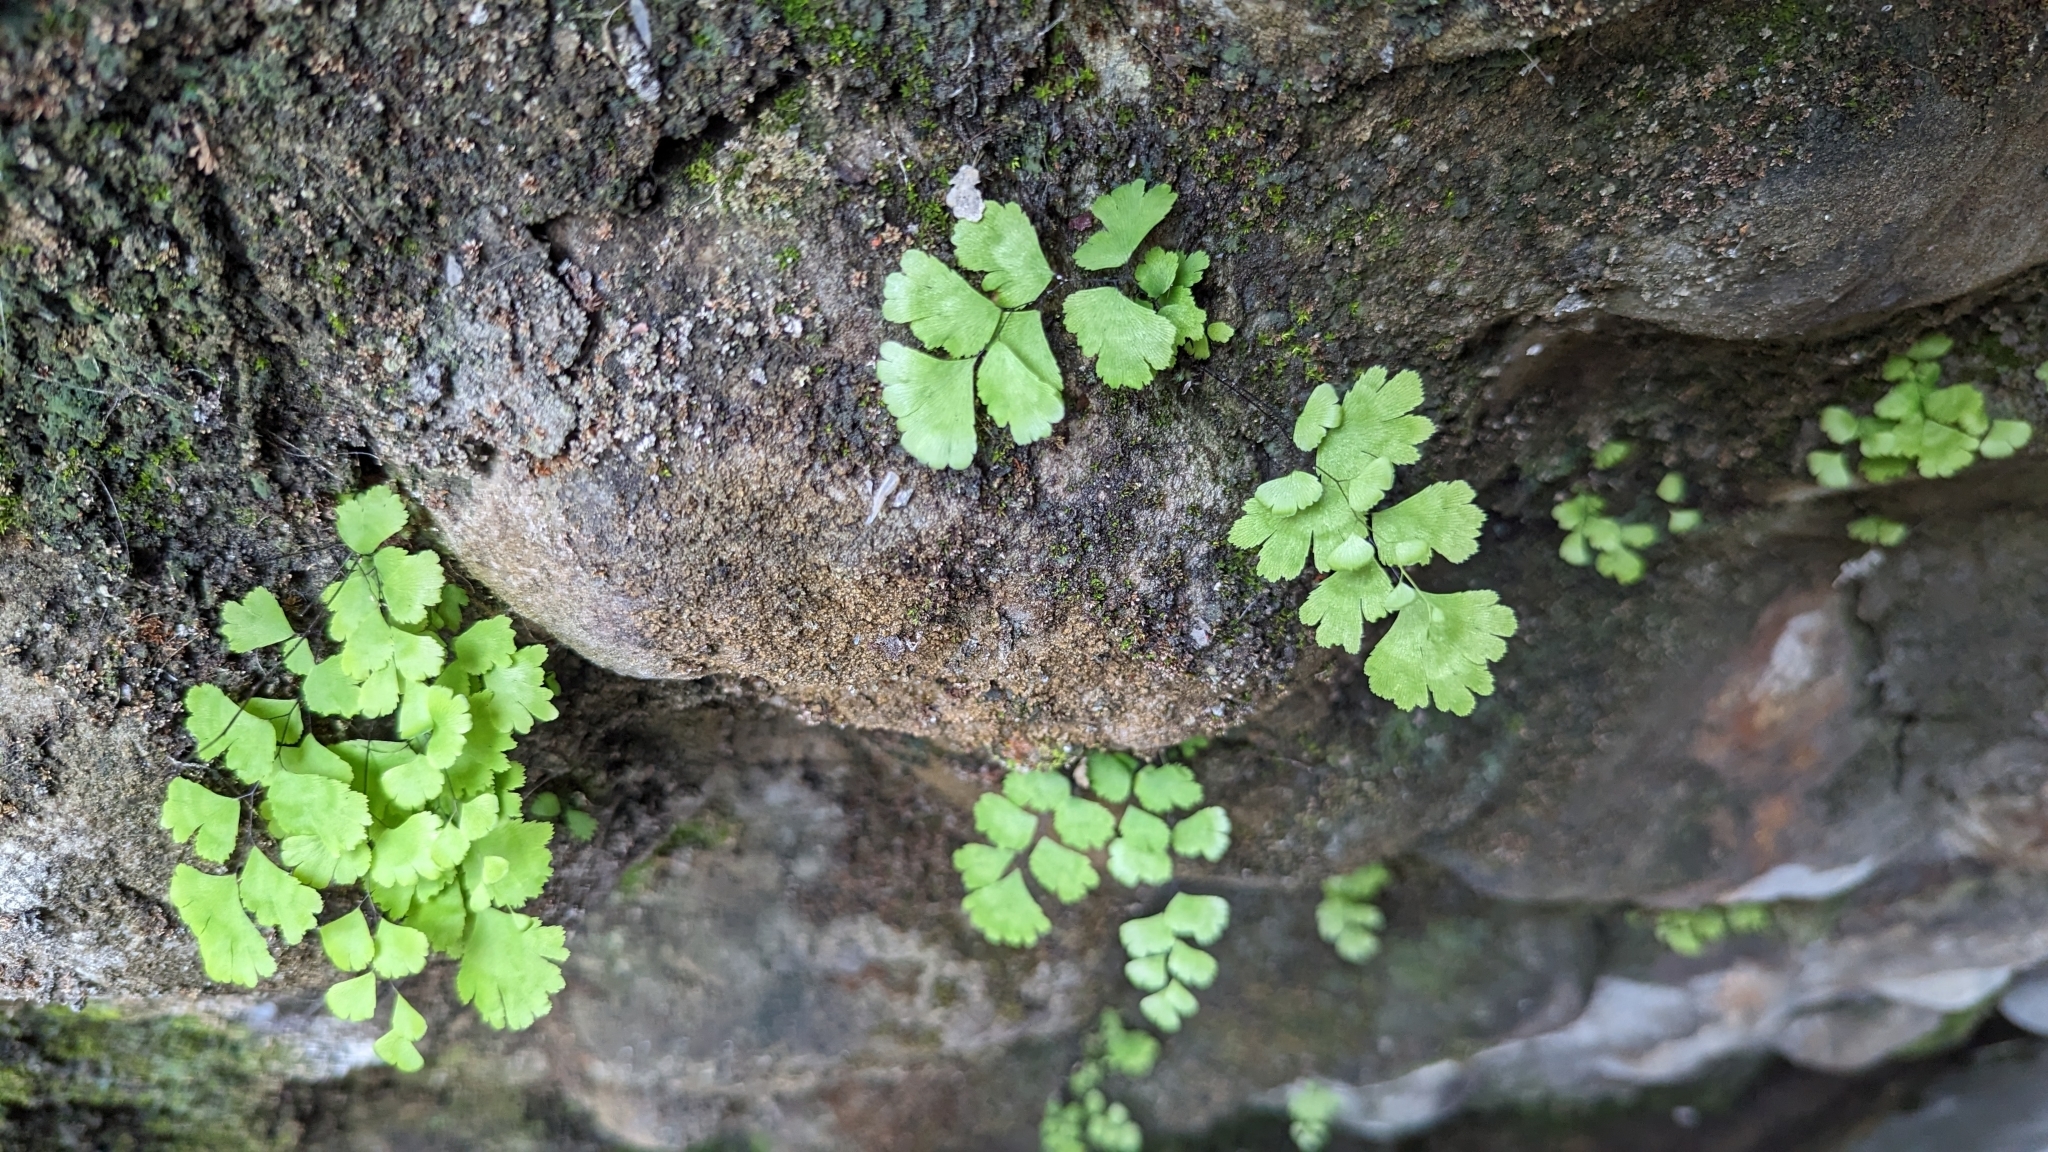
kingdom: Plantae
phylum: Tracheophyta
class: Polypodiopsida
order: Polypodiales
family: Pteridaceae
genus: Adiantum
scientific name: Adiantum capillus-veneris
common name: Maidenhair fern
